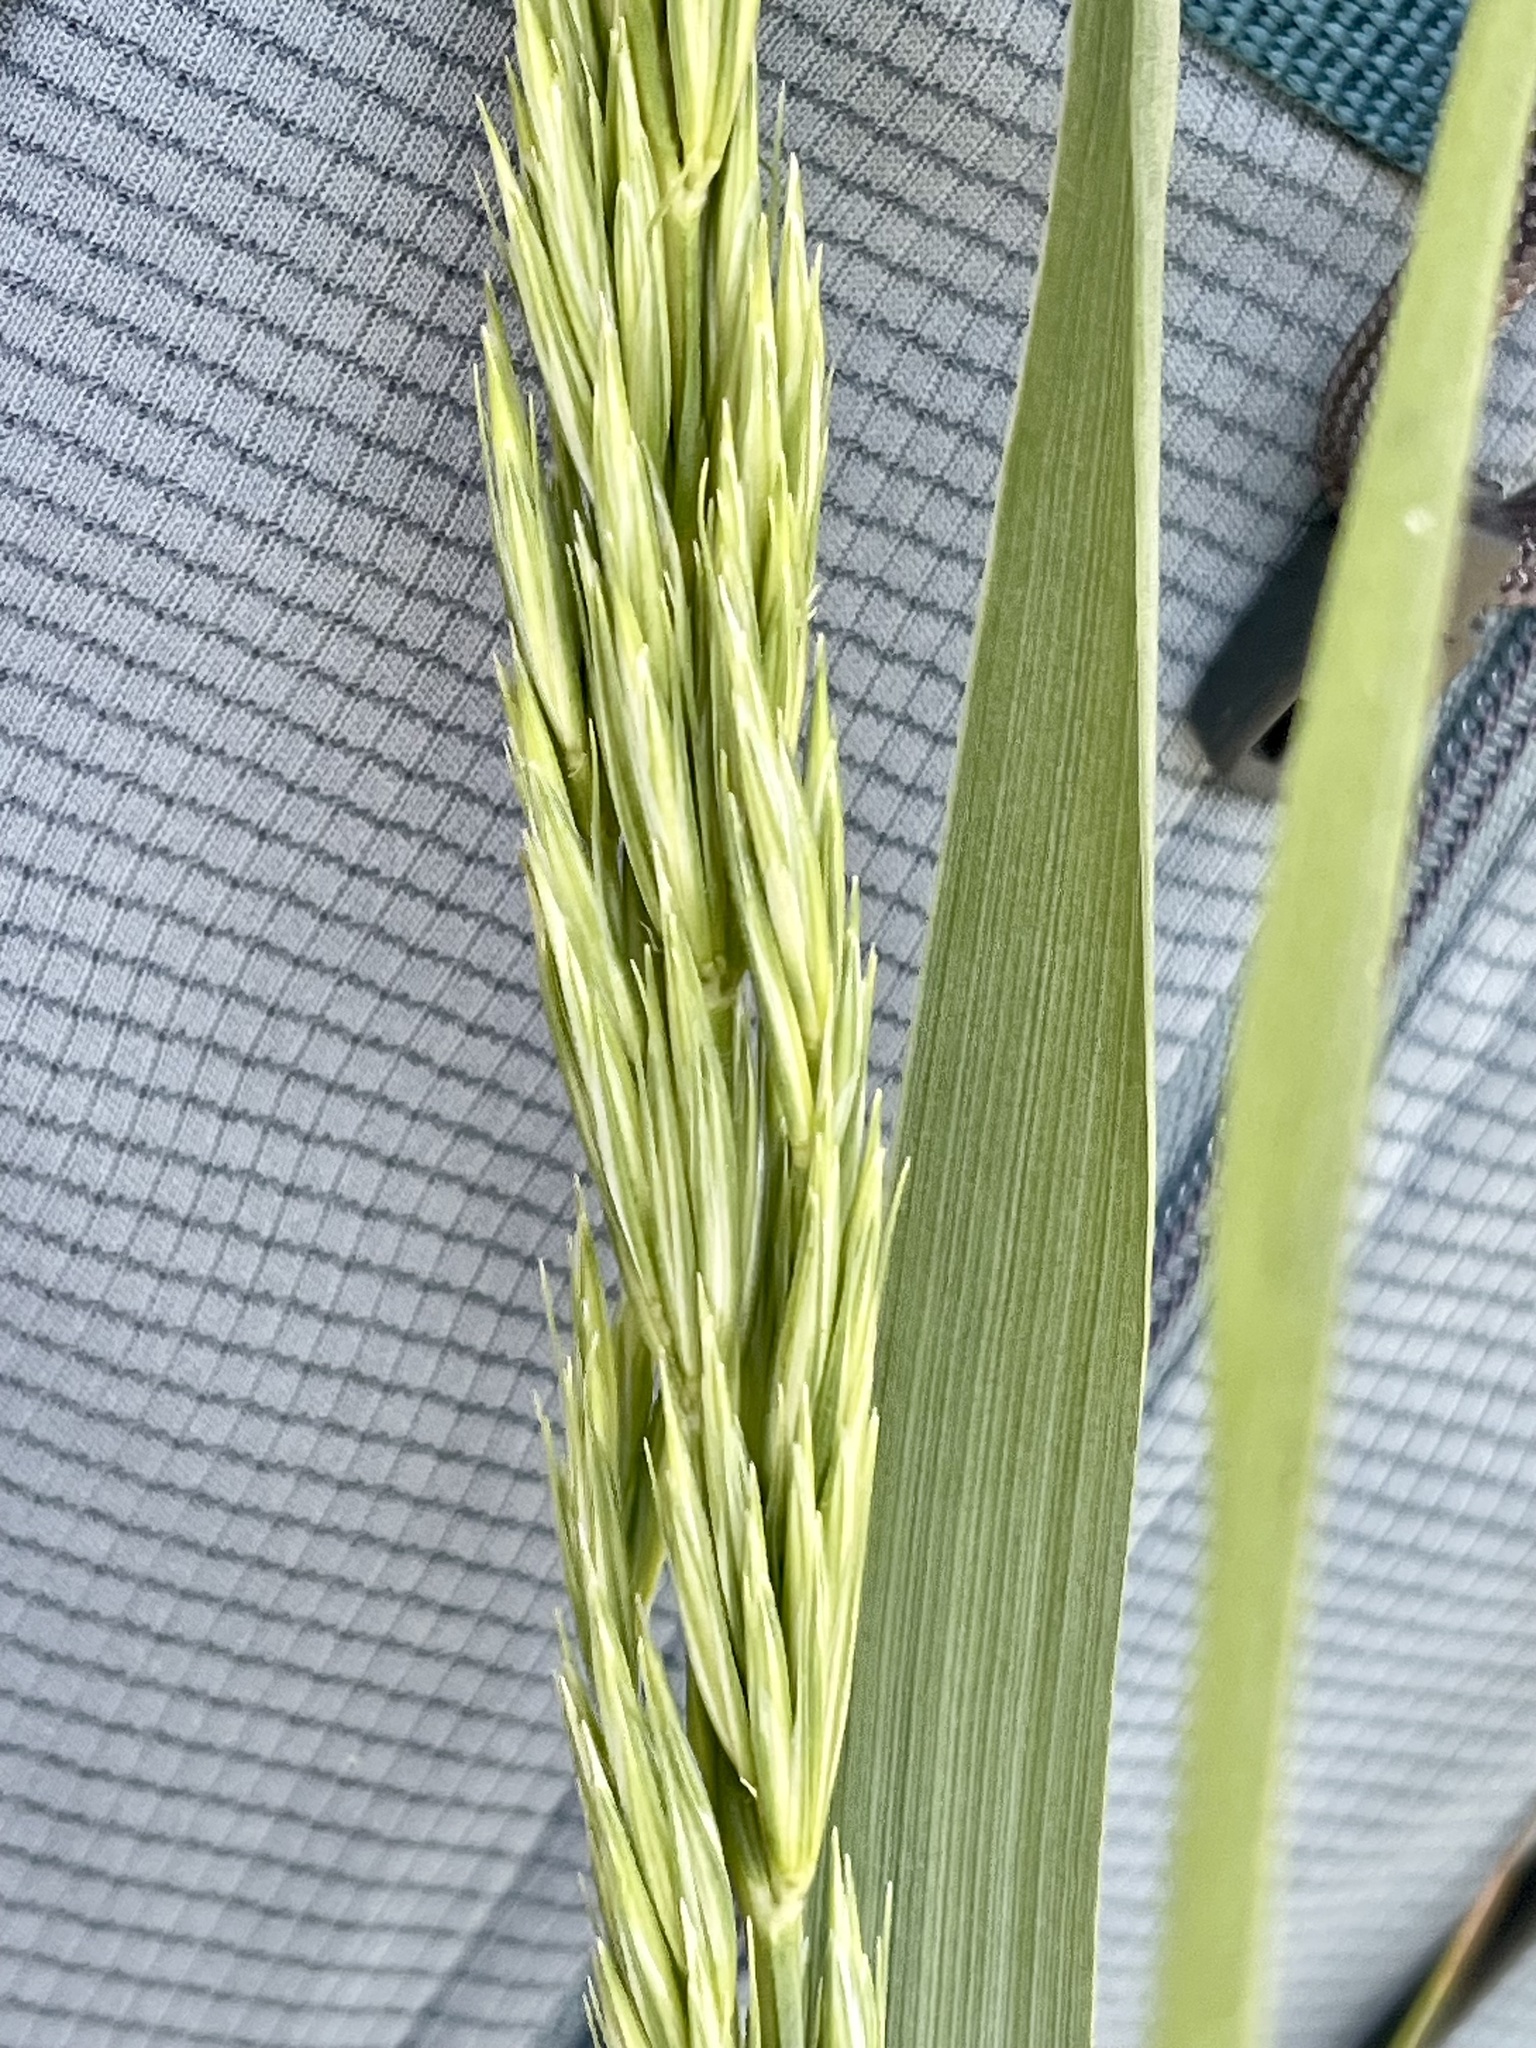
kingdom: Plantae
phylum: Tracheophyta
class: Liliopsida
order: Poales
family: Poaceae
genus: Leymus
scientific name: Leymus condensatus
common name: Giant wild rye
